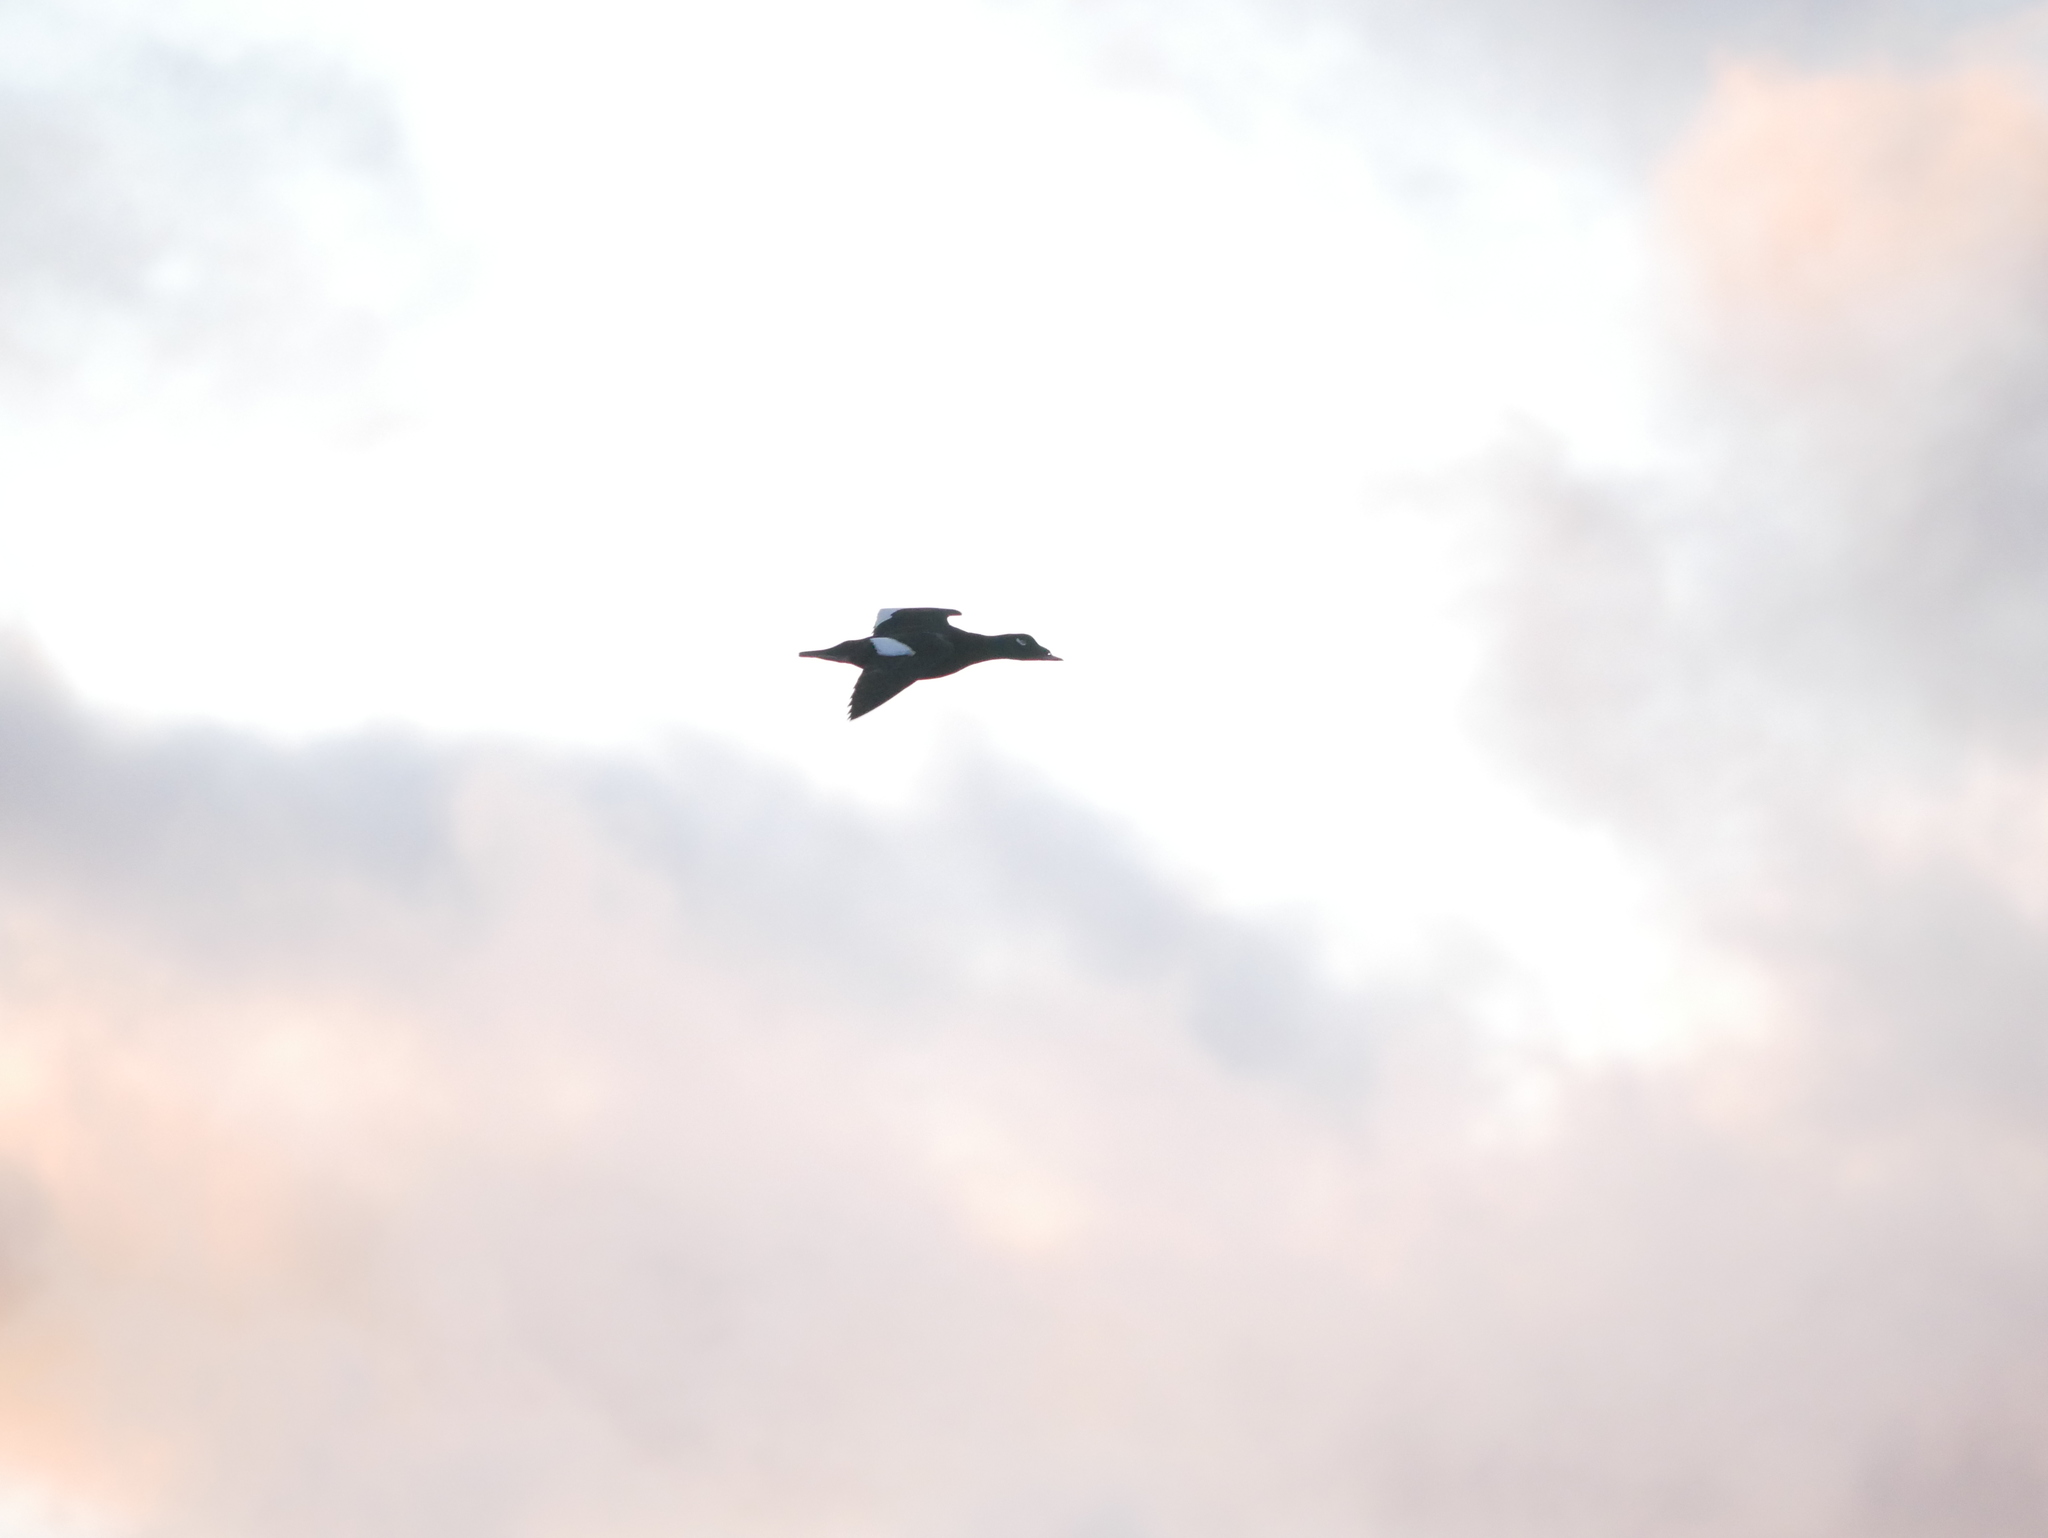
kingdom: Animalia
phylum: Chordata
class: Aves
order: Anseriformes
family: Anatidae
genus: Melanitta
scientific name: Melanitta deglandi
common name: White-winged scoter
